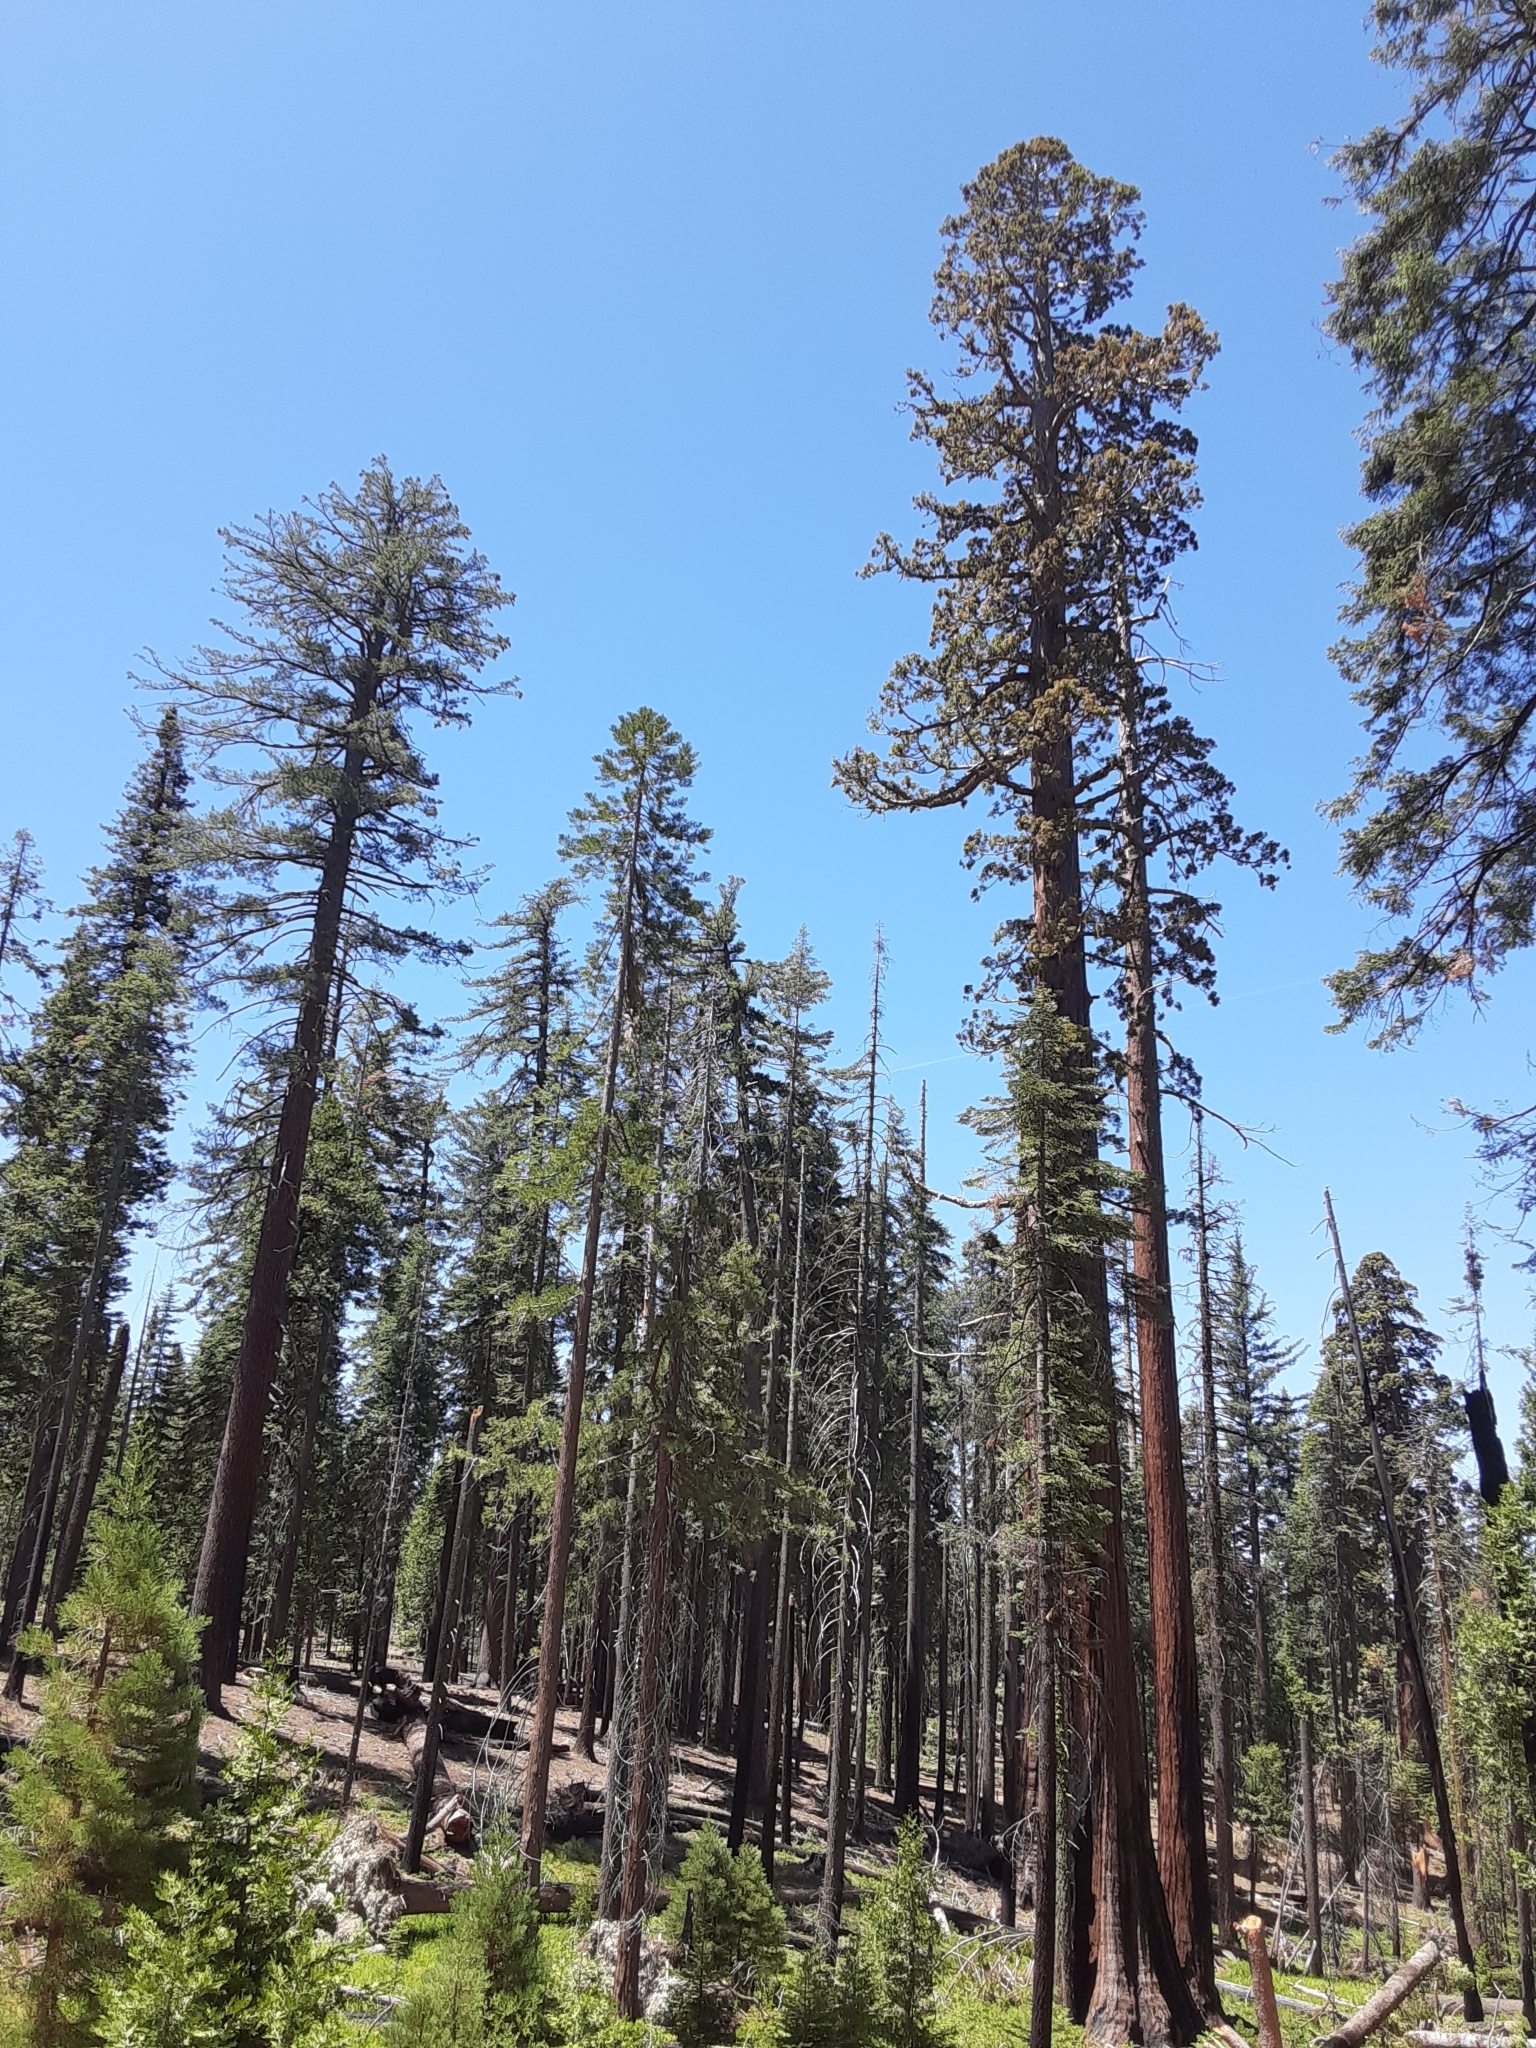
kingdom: Plantae
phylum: Tracheophyta
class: Pinopsida
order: Pinales
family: Cupressaceae
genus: Sequoiadendron
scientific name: Sequoiadendron giganteum
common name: Wellingtonia
